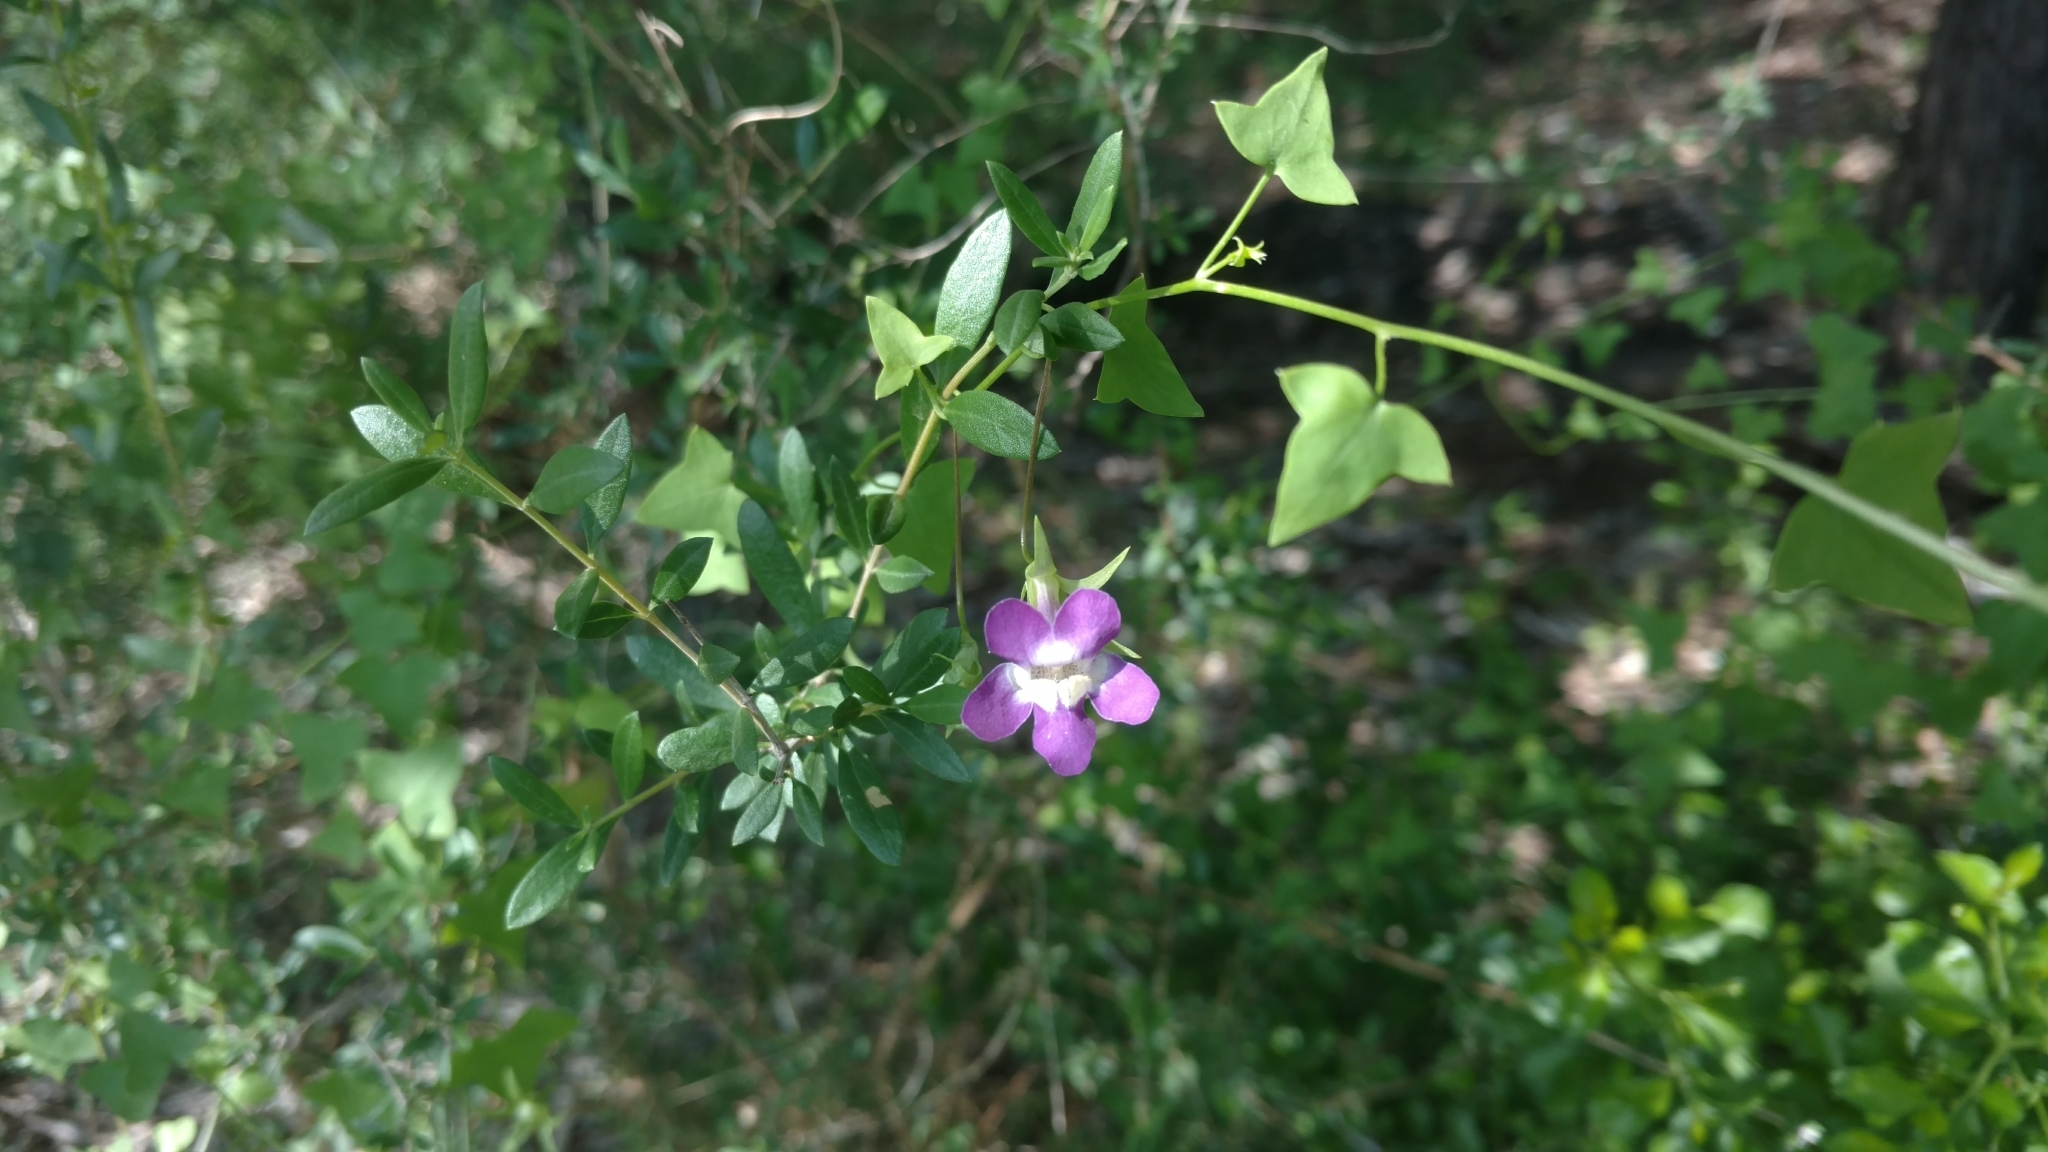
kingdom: Plantae
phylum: Tracheophyta
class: Magnoliopsida
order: Lamiales
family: Plantaginaceae
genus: Maurandella
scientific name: Maurandella antirrhiniflora
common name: Violet twining-snapdragon
